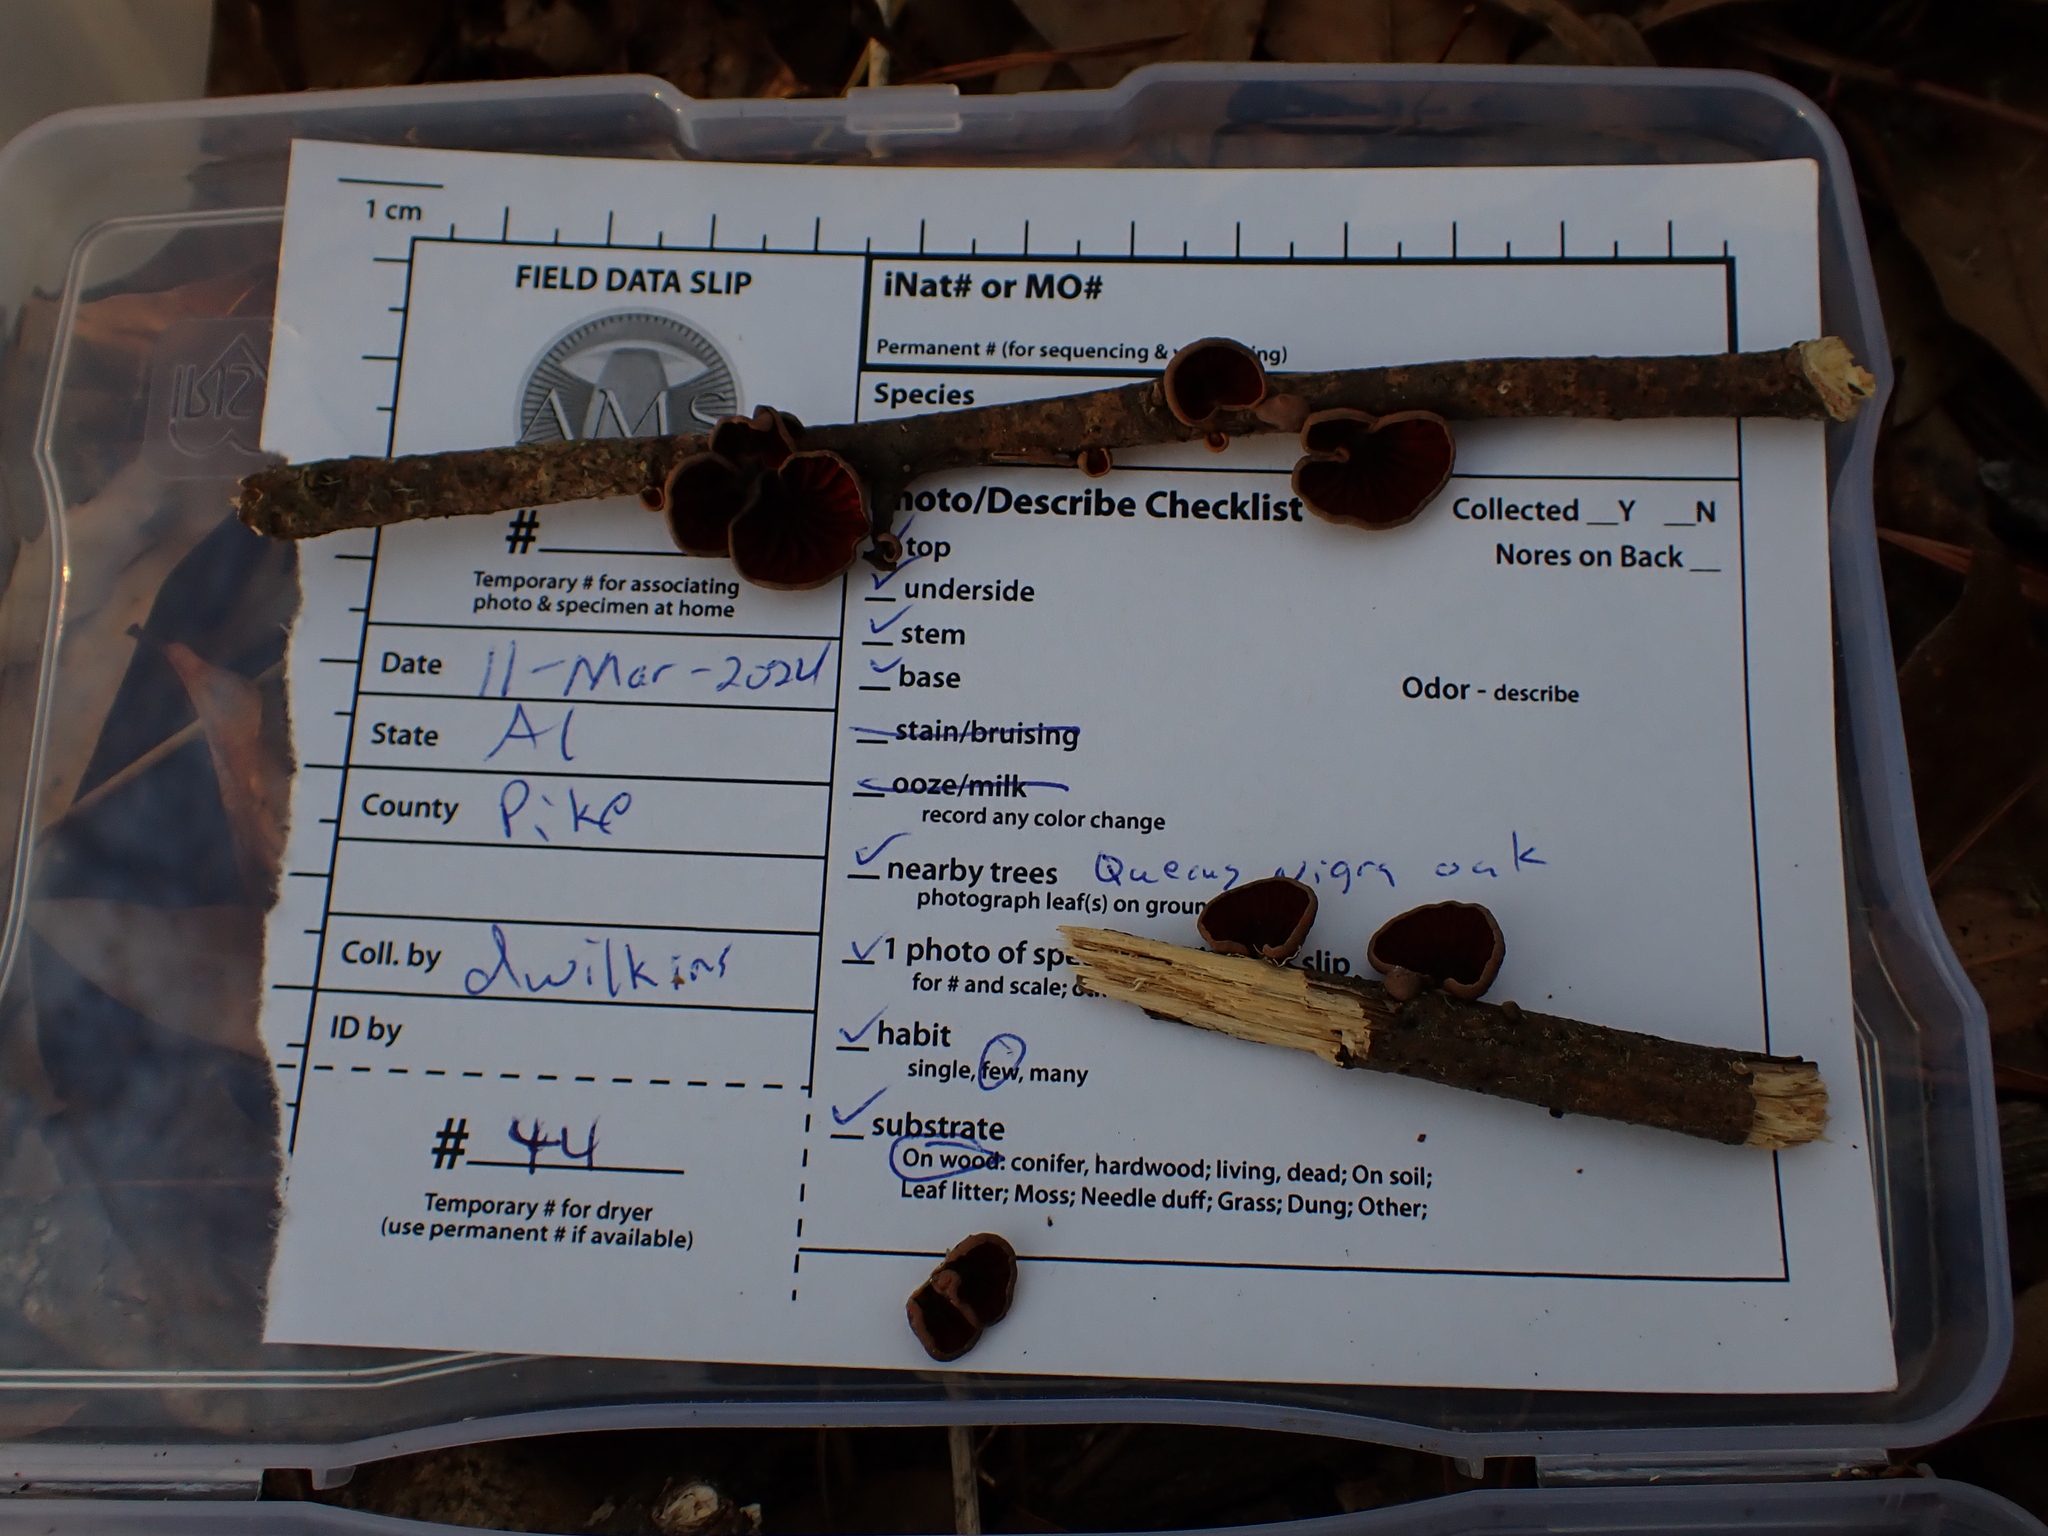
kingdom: Fungi
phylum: Basidiomycota
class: Agaricomycetes
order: Agaricales
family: Omphalotaceae
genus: Anthracophyllum
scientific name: Anthracophyllum lateritium
